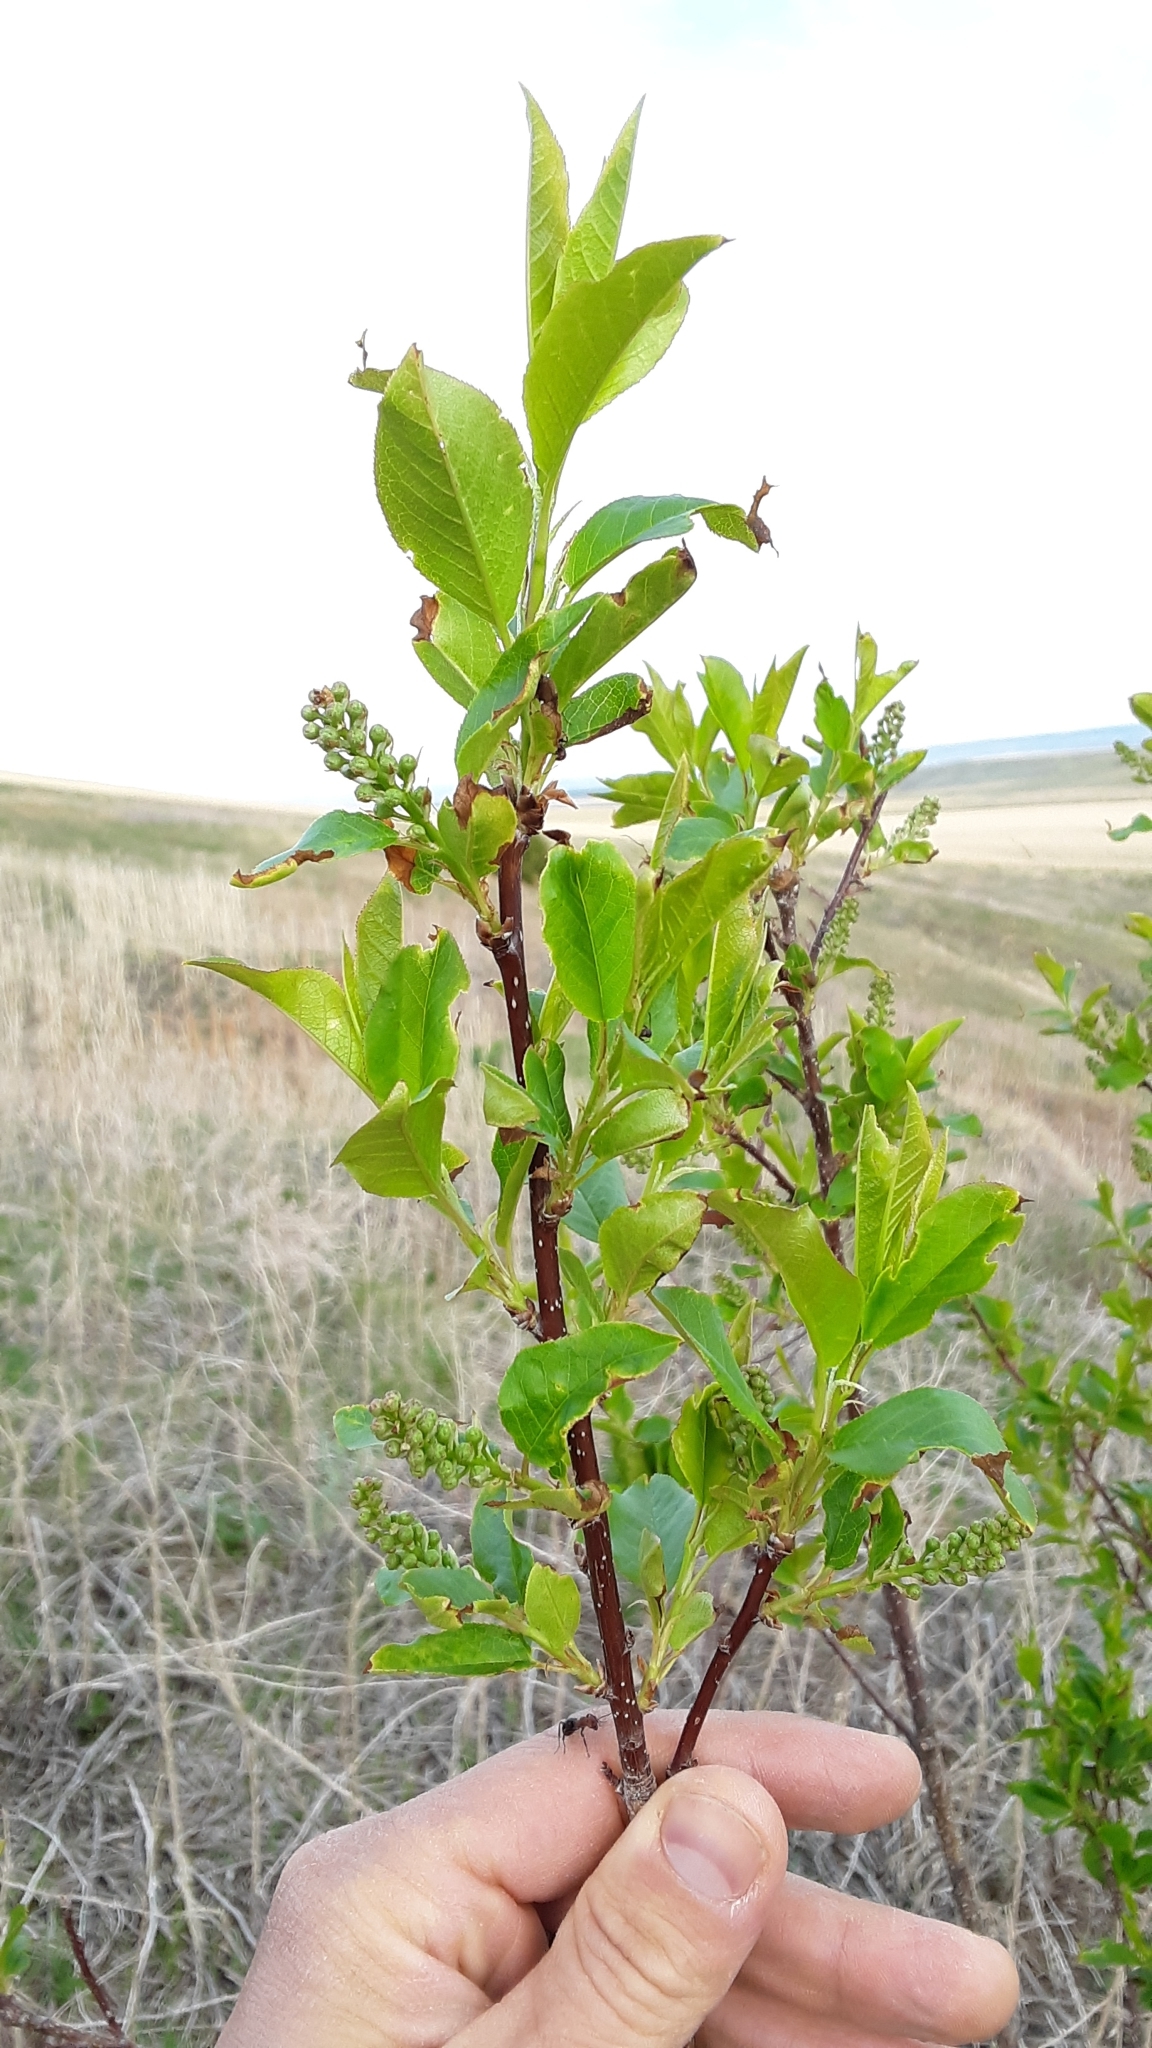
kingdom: Plantae
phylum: Tracheophyta
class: Magnoliopsida
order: Rosales
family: Rosaceae
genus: Prunus
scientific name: Prunus virginiana
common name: Chokecherry
